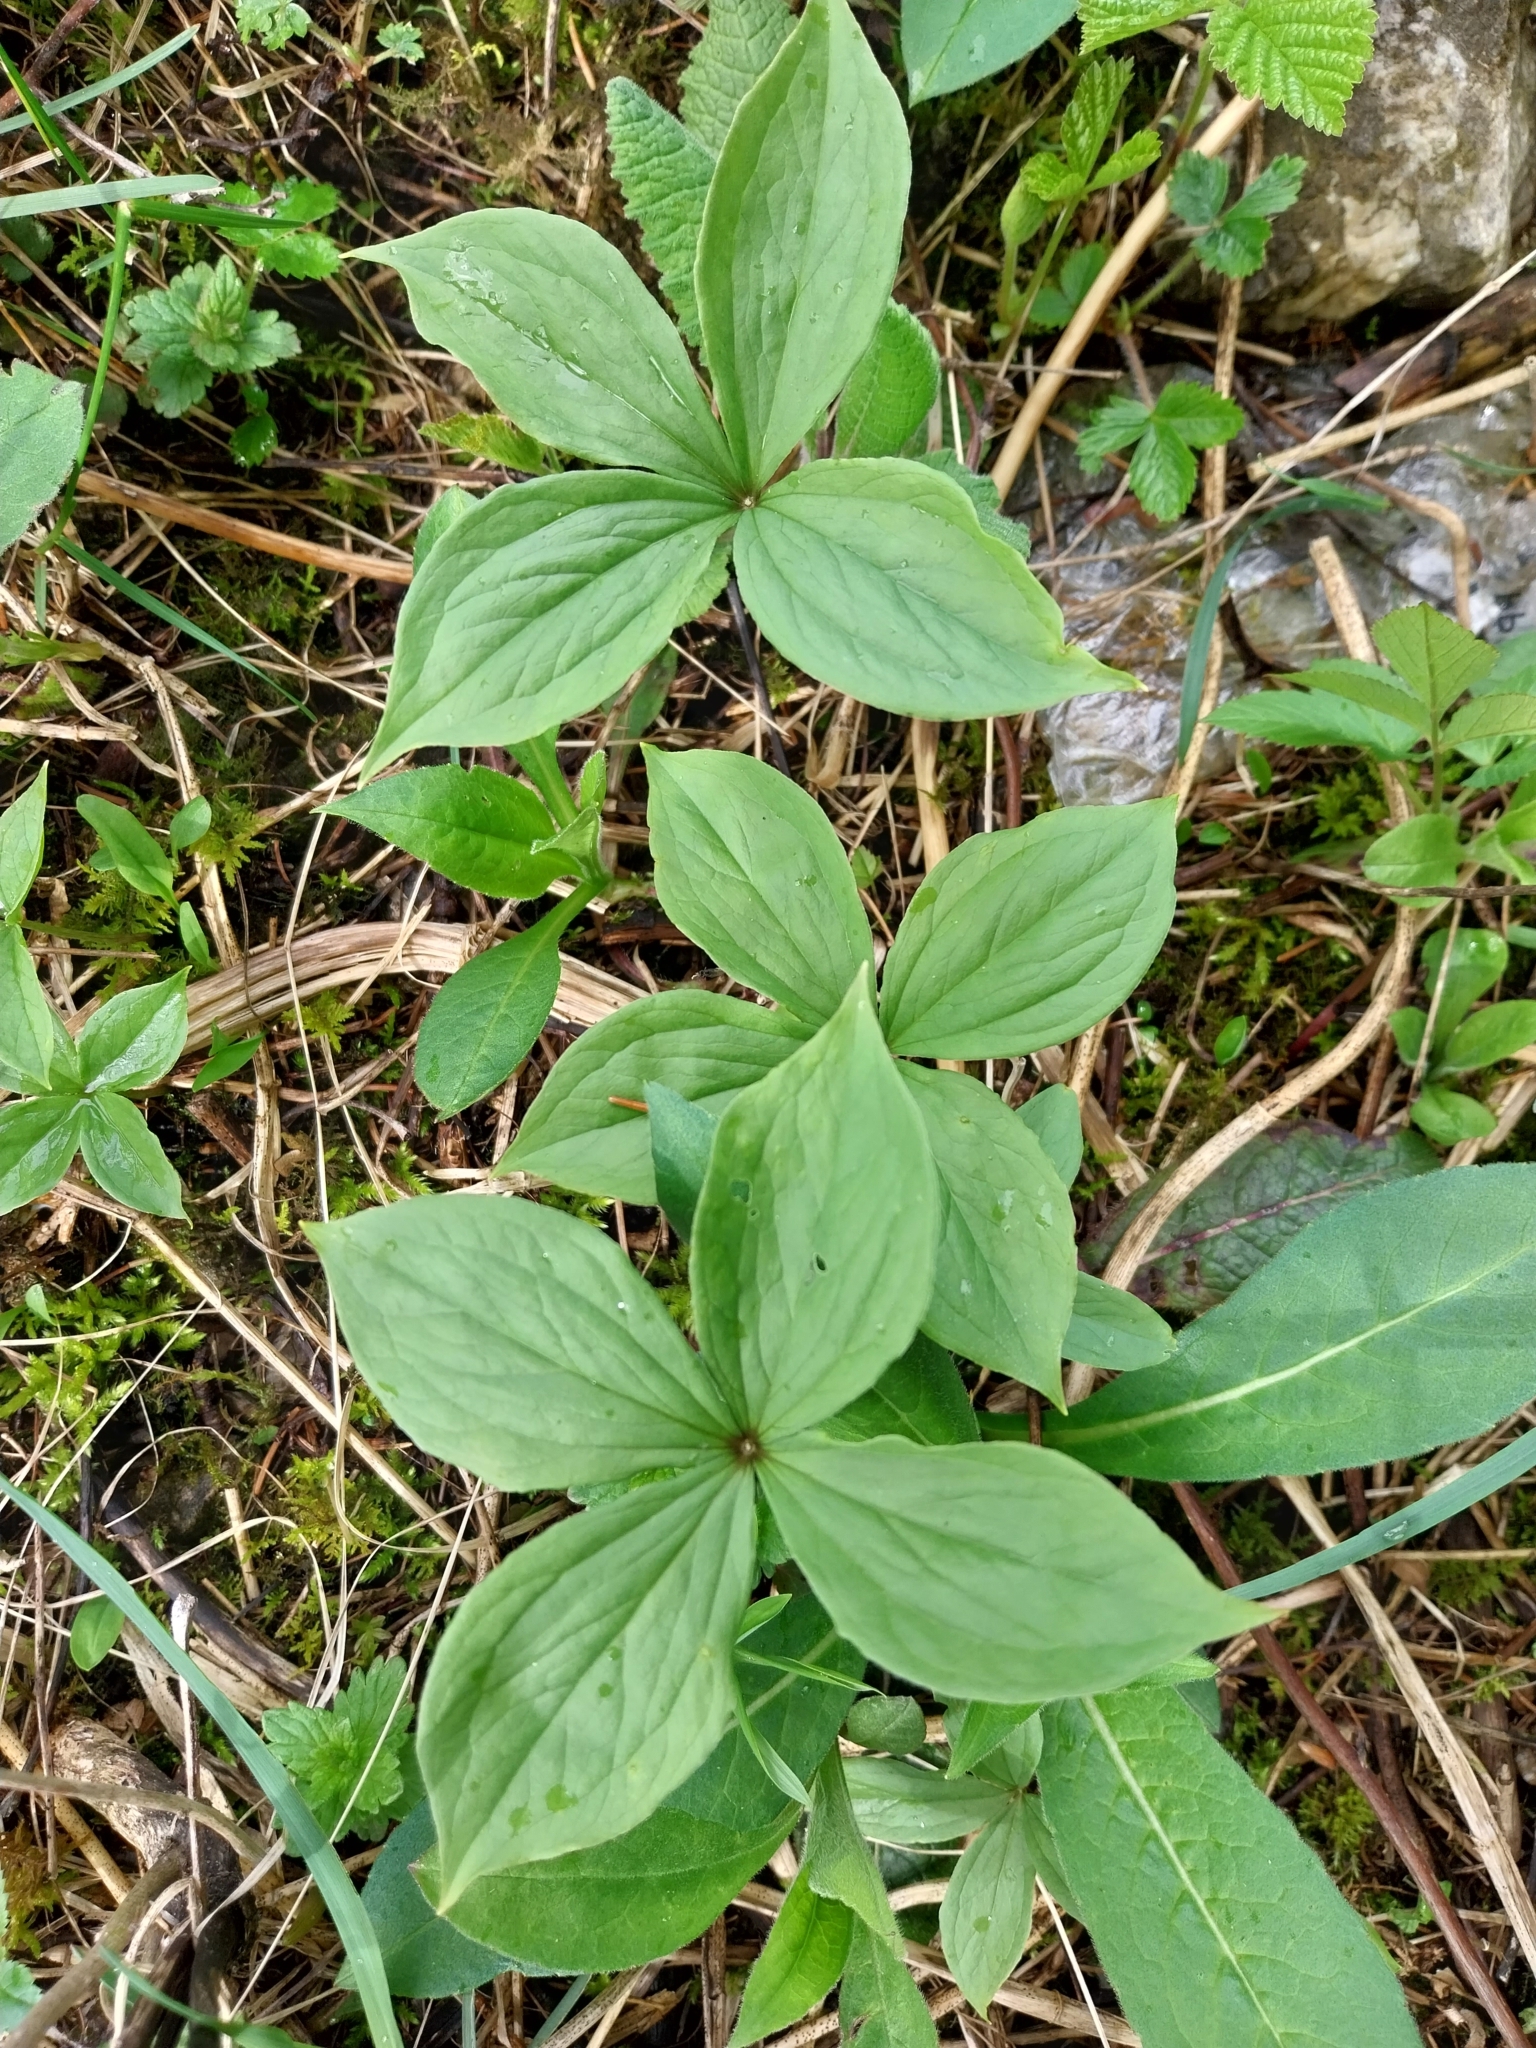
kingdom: Plantae
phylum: Tracheophyta
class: Liliopsida
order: Liliales
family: Melanthiaceae
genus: Paris
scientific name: Paris quadrifolia
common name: Herb-paris
